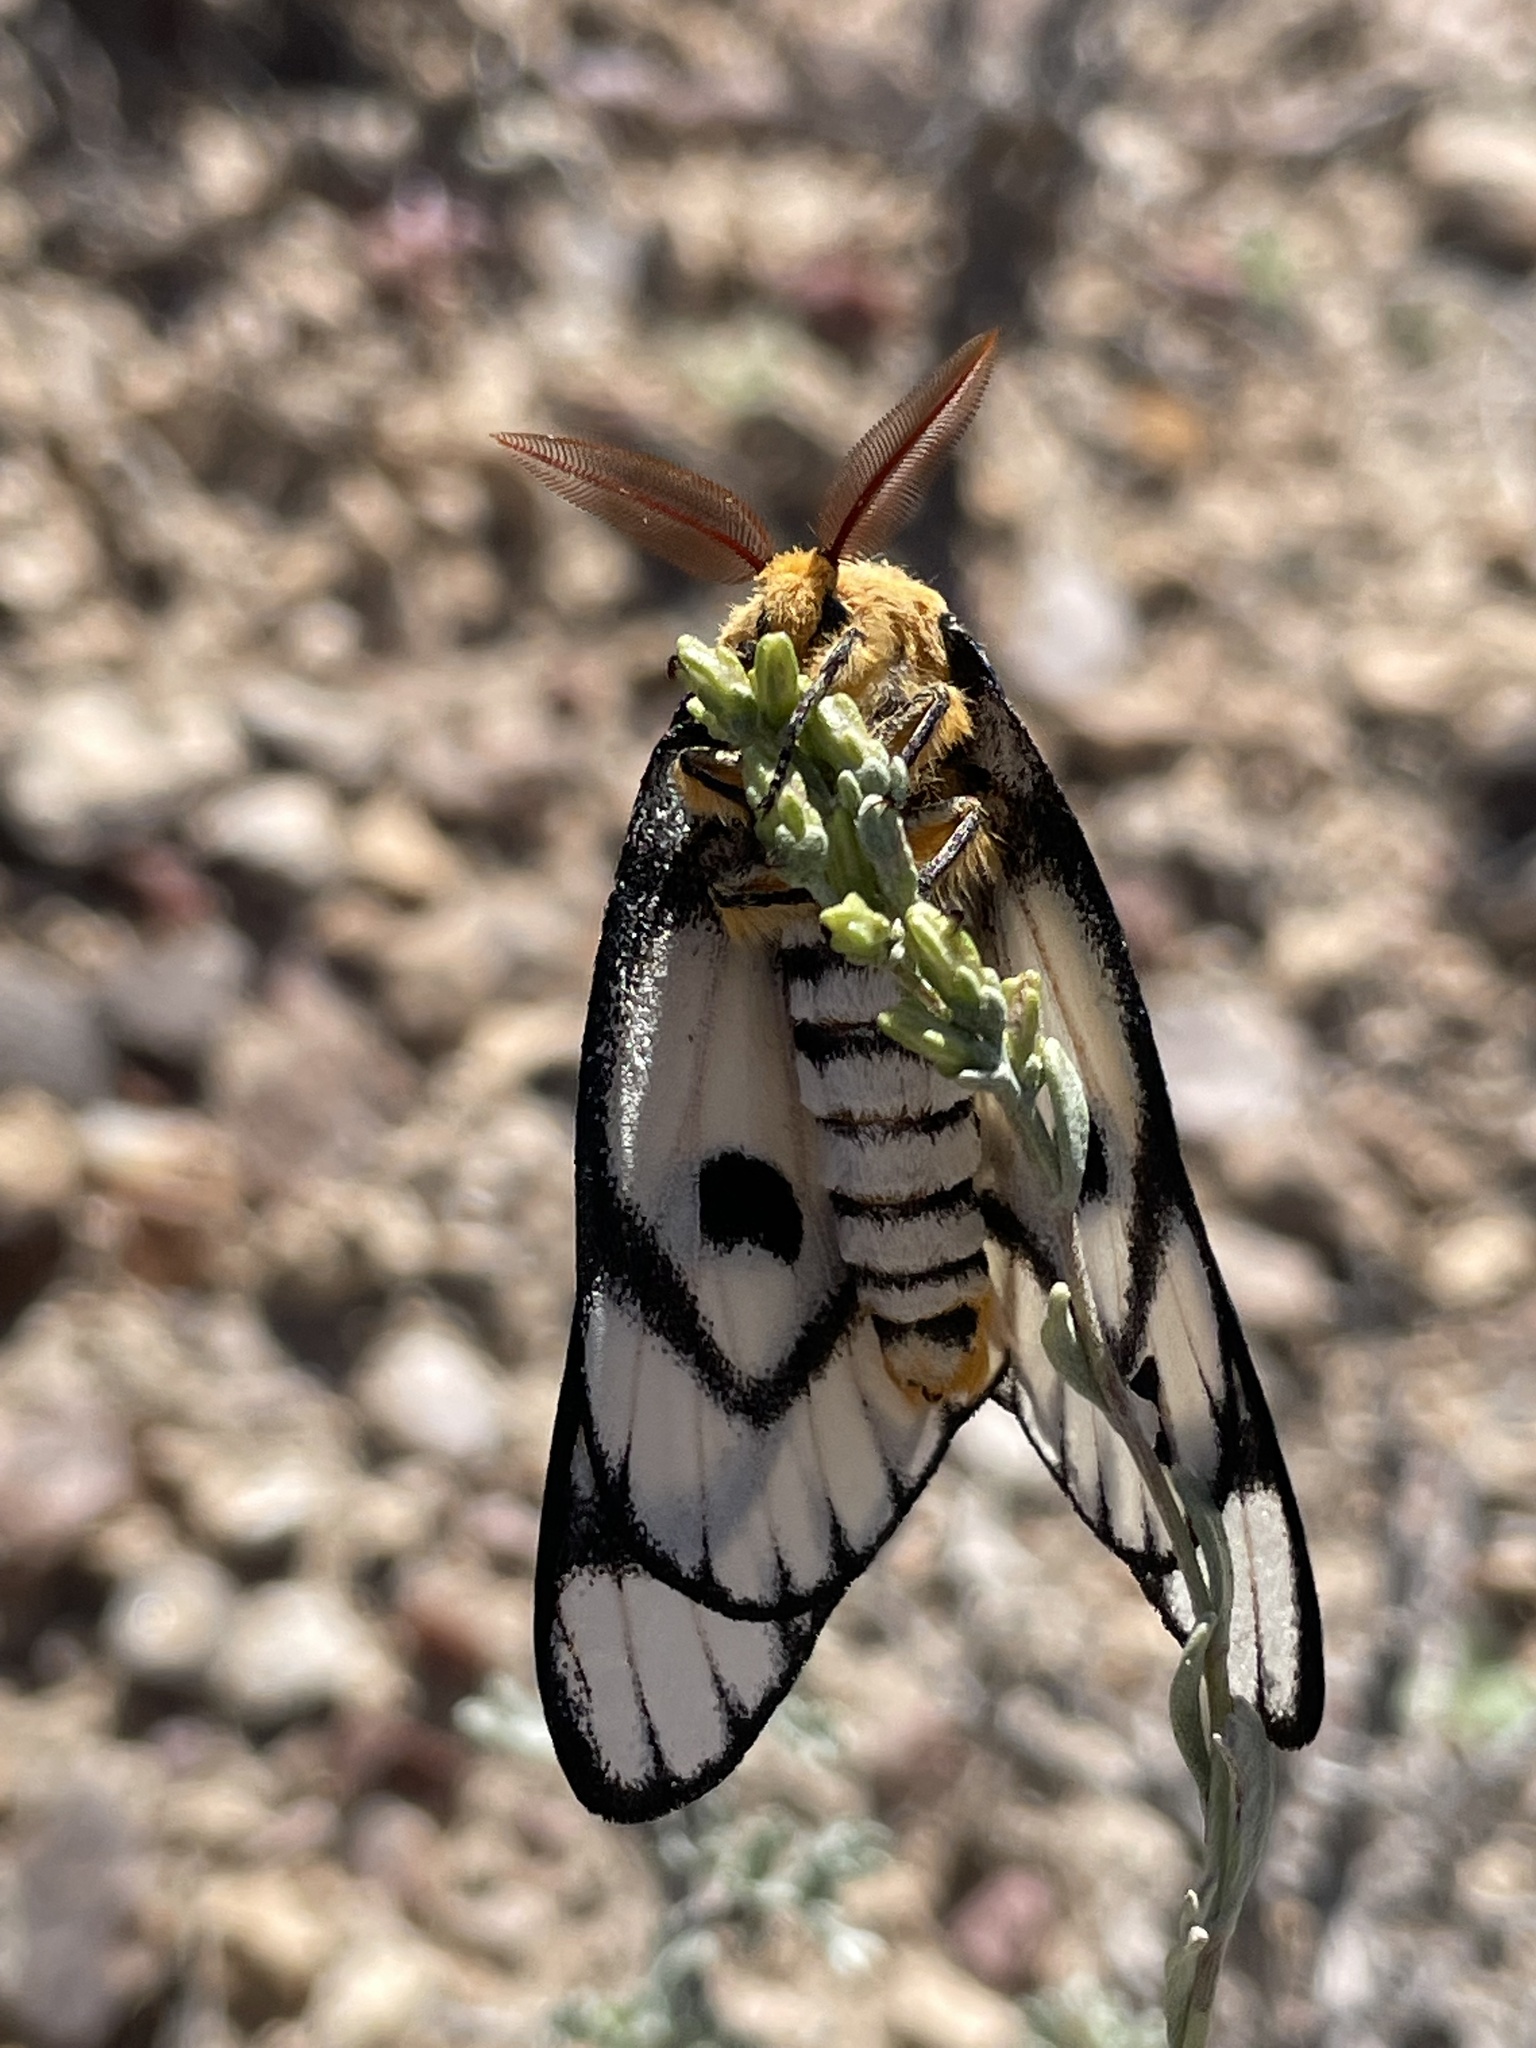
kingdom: Animalia
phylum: Arthropoda
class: Insecta
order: Lepidoptera
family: Saturniidae
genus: Hemileuca
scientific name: Hemileuca hera
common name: Hera sheepmoth
